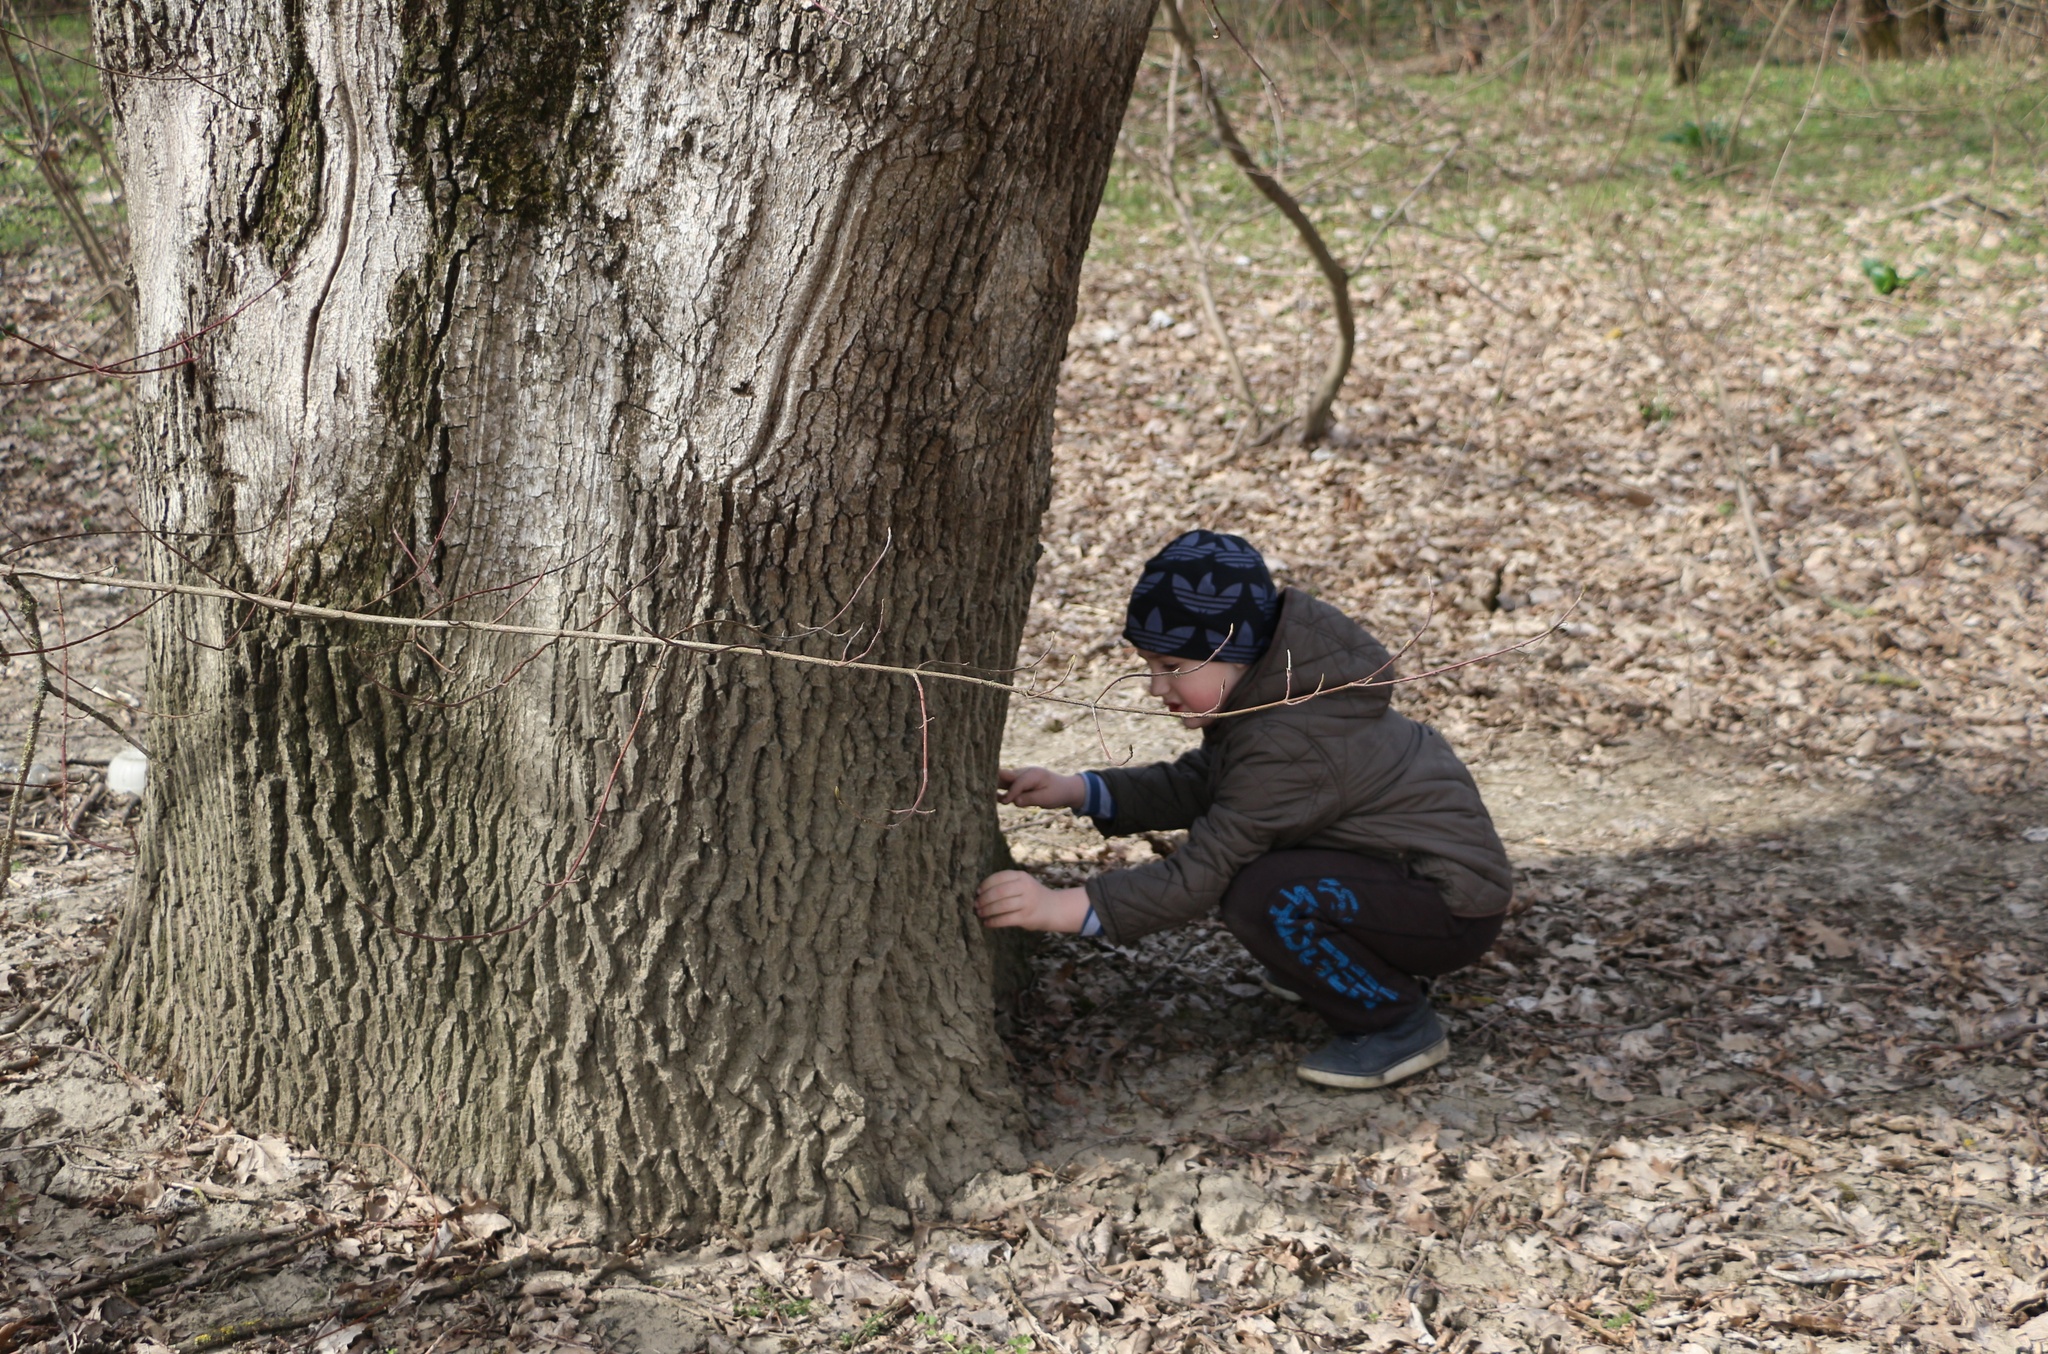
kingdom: Plantae
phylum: Tracheophyta
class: Magnoliopsida
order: Fagales
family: Fagaceae
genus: Quercus
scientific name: Quercus robur
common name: Pedunculate oak
